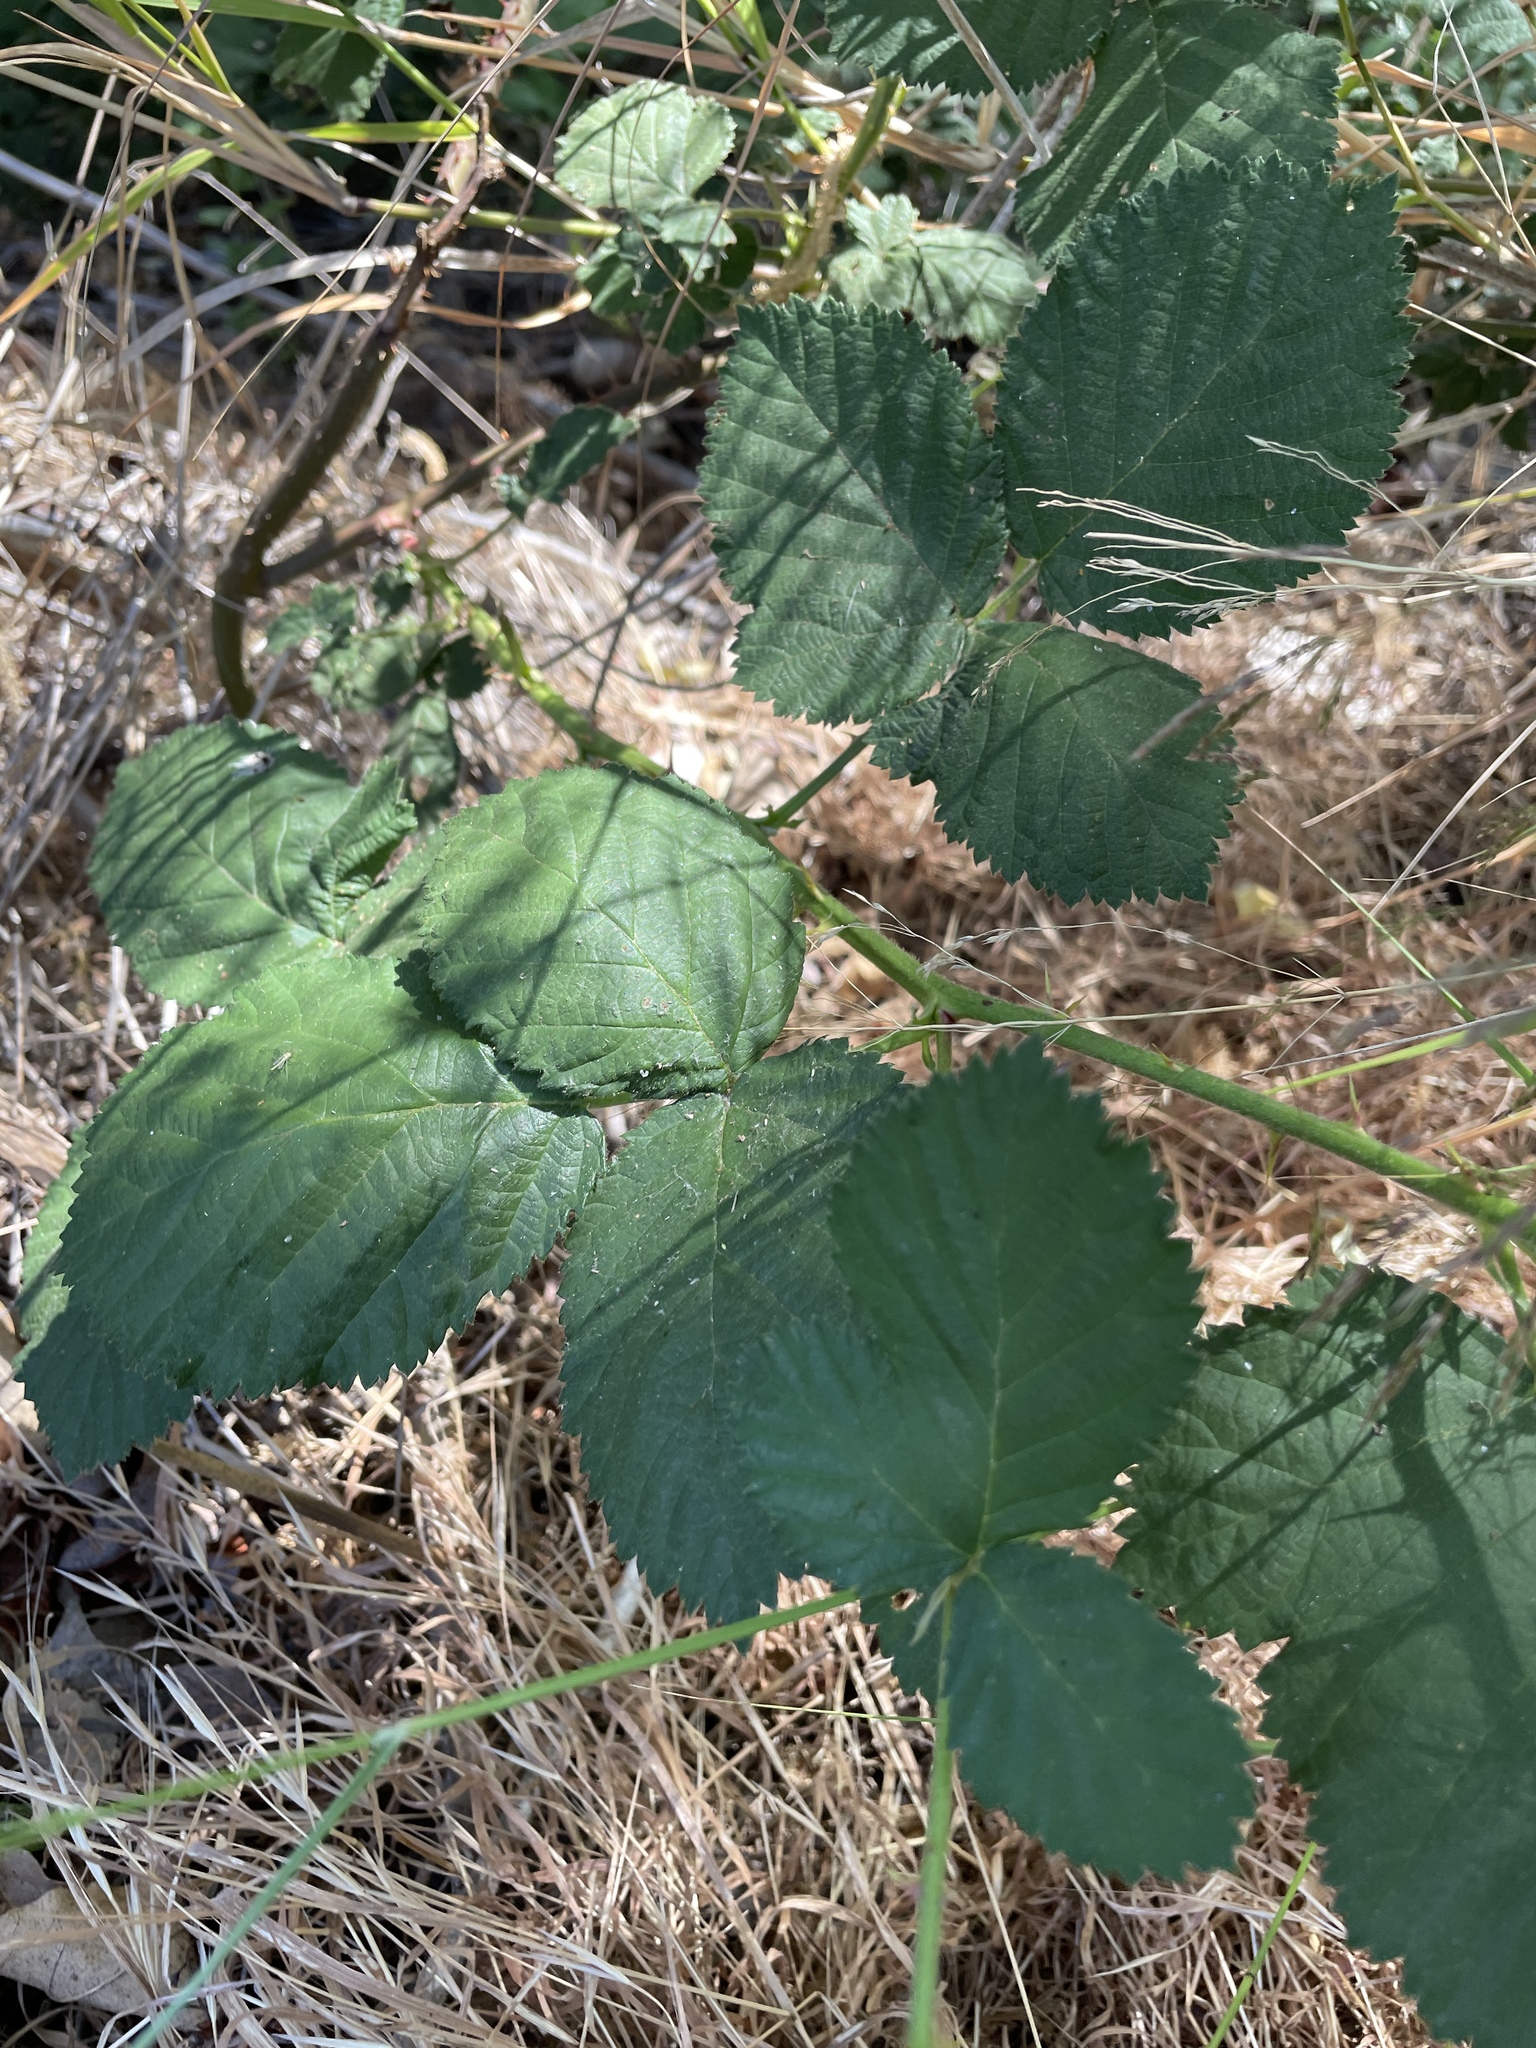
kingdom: Plantae
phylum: Tracheophyta
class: Magnoliopsida
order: Rosales
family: Rosaceae
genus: Rubus
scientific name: Rubus armeniacus
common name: Himalayan blackberry
